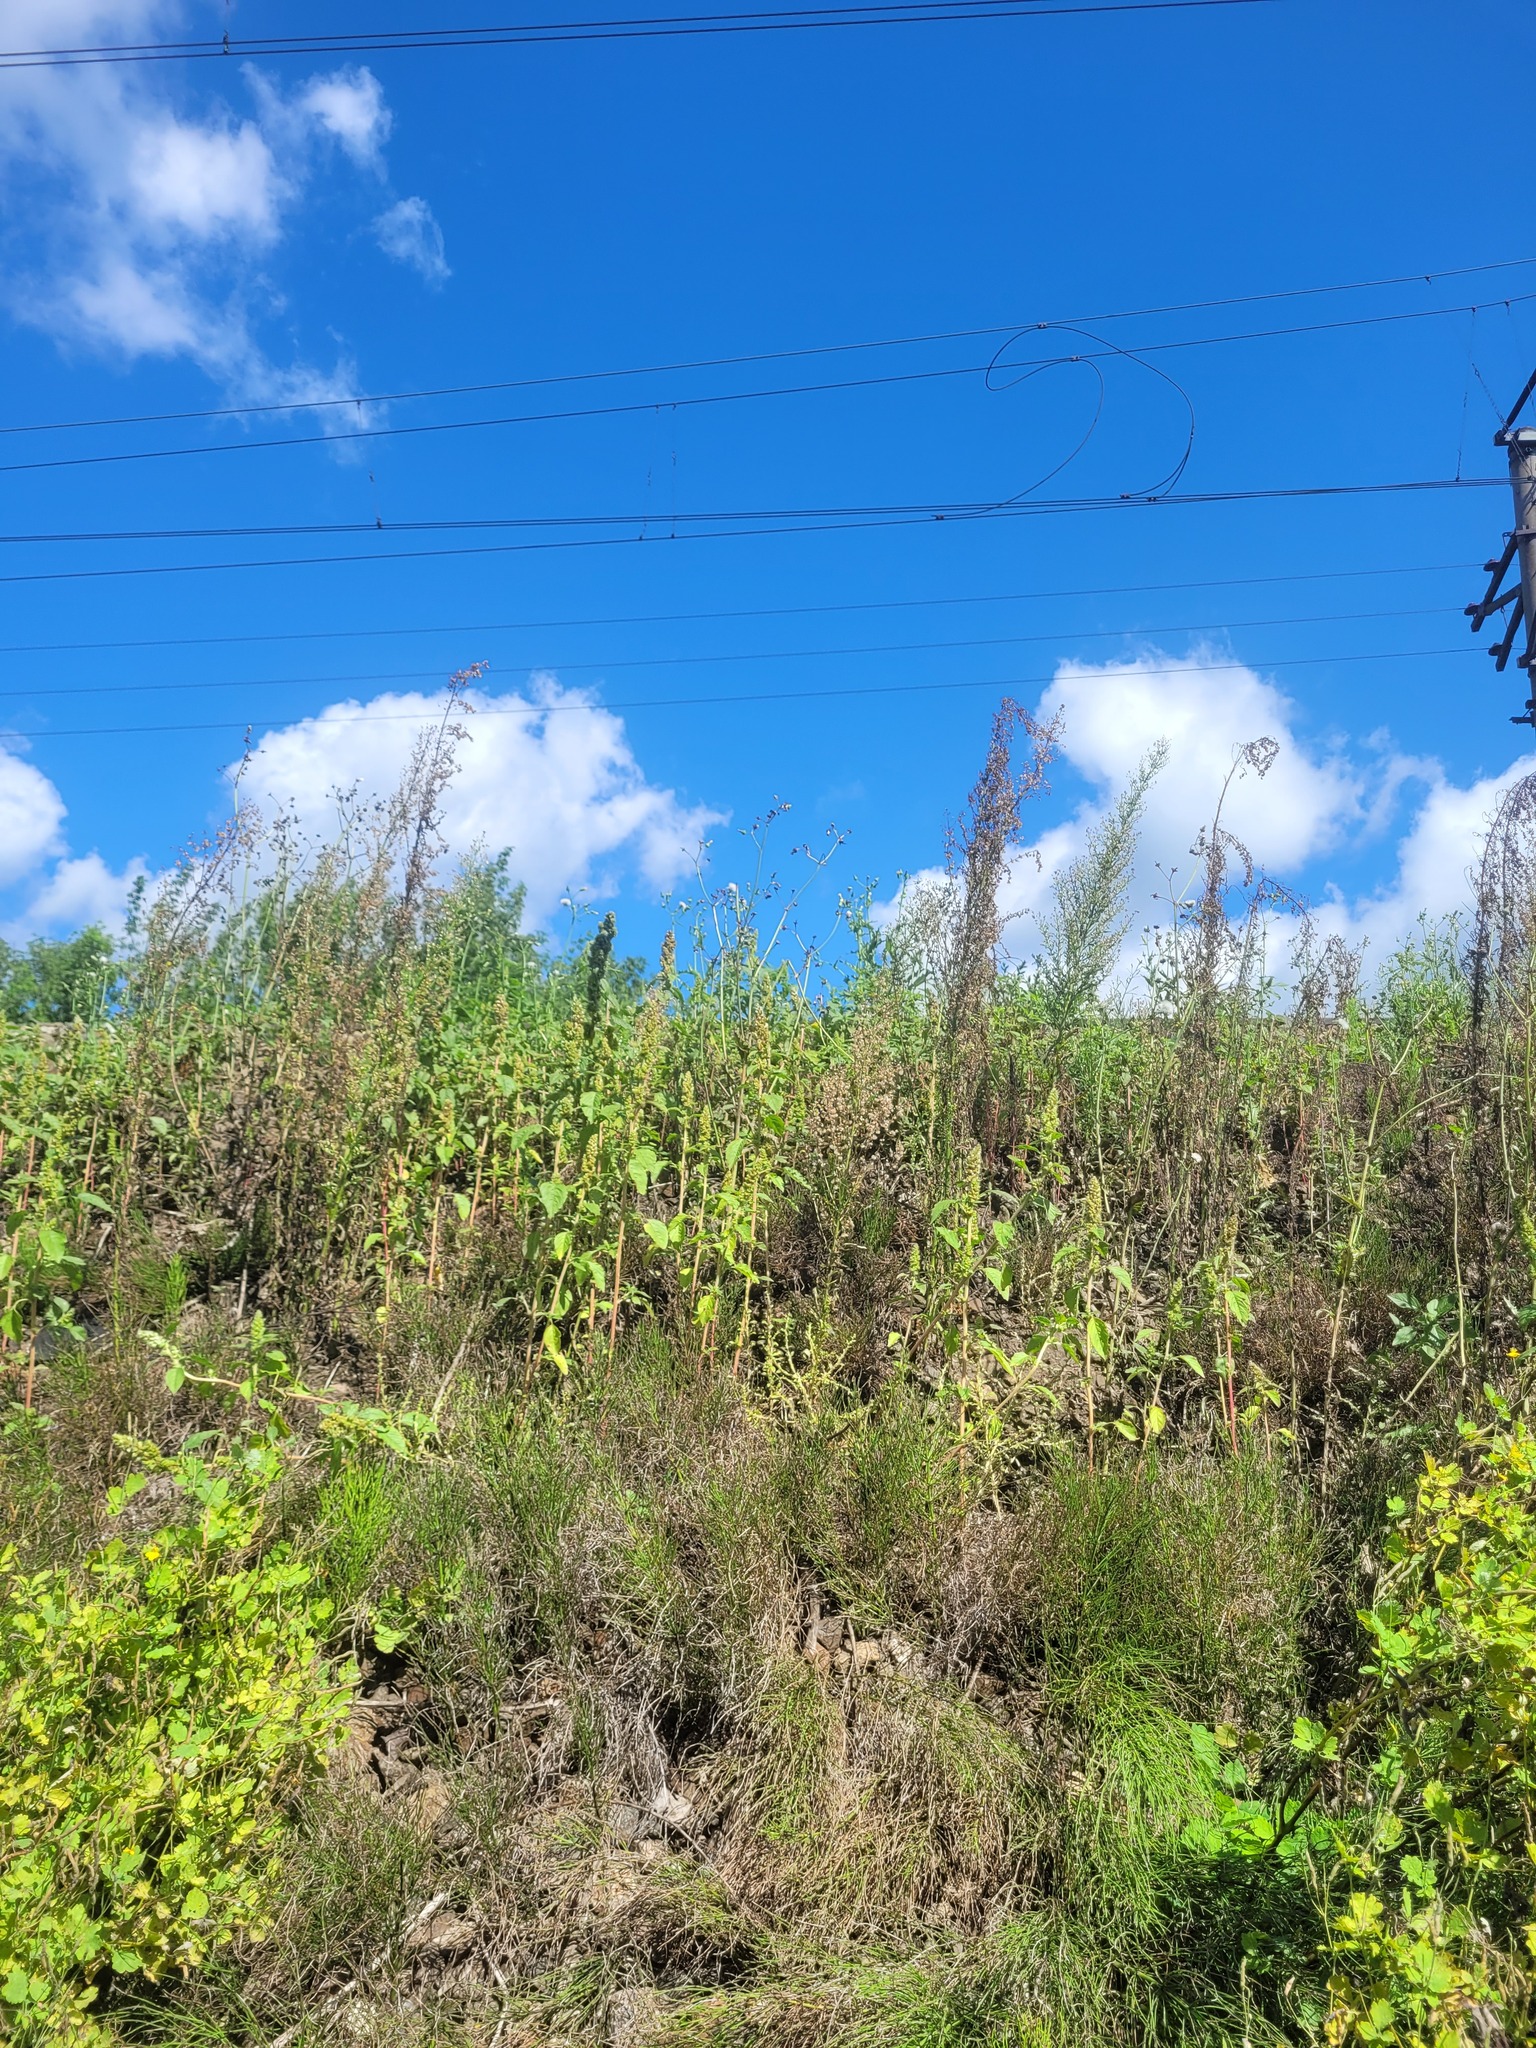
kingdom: Plantae
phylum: Tracheophyta
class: Magnoliopsida
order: Caryophyllales
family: Amaranthaceae
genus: Amaranthus
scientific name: Amaranthus retroflexus
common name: Redroot amaranth
